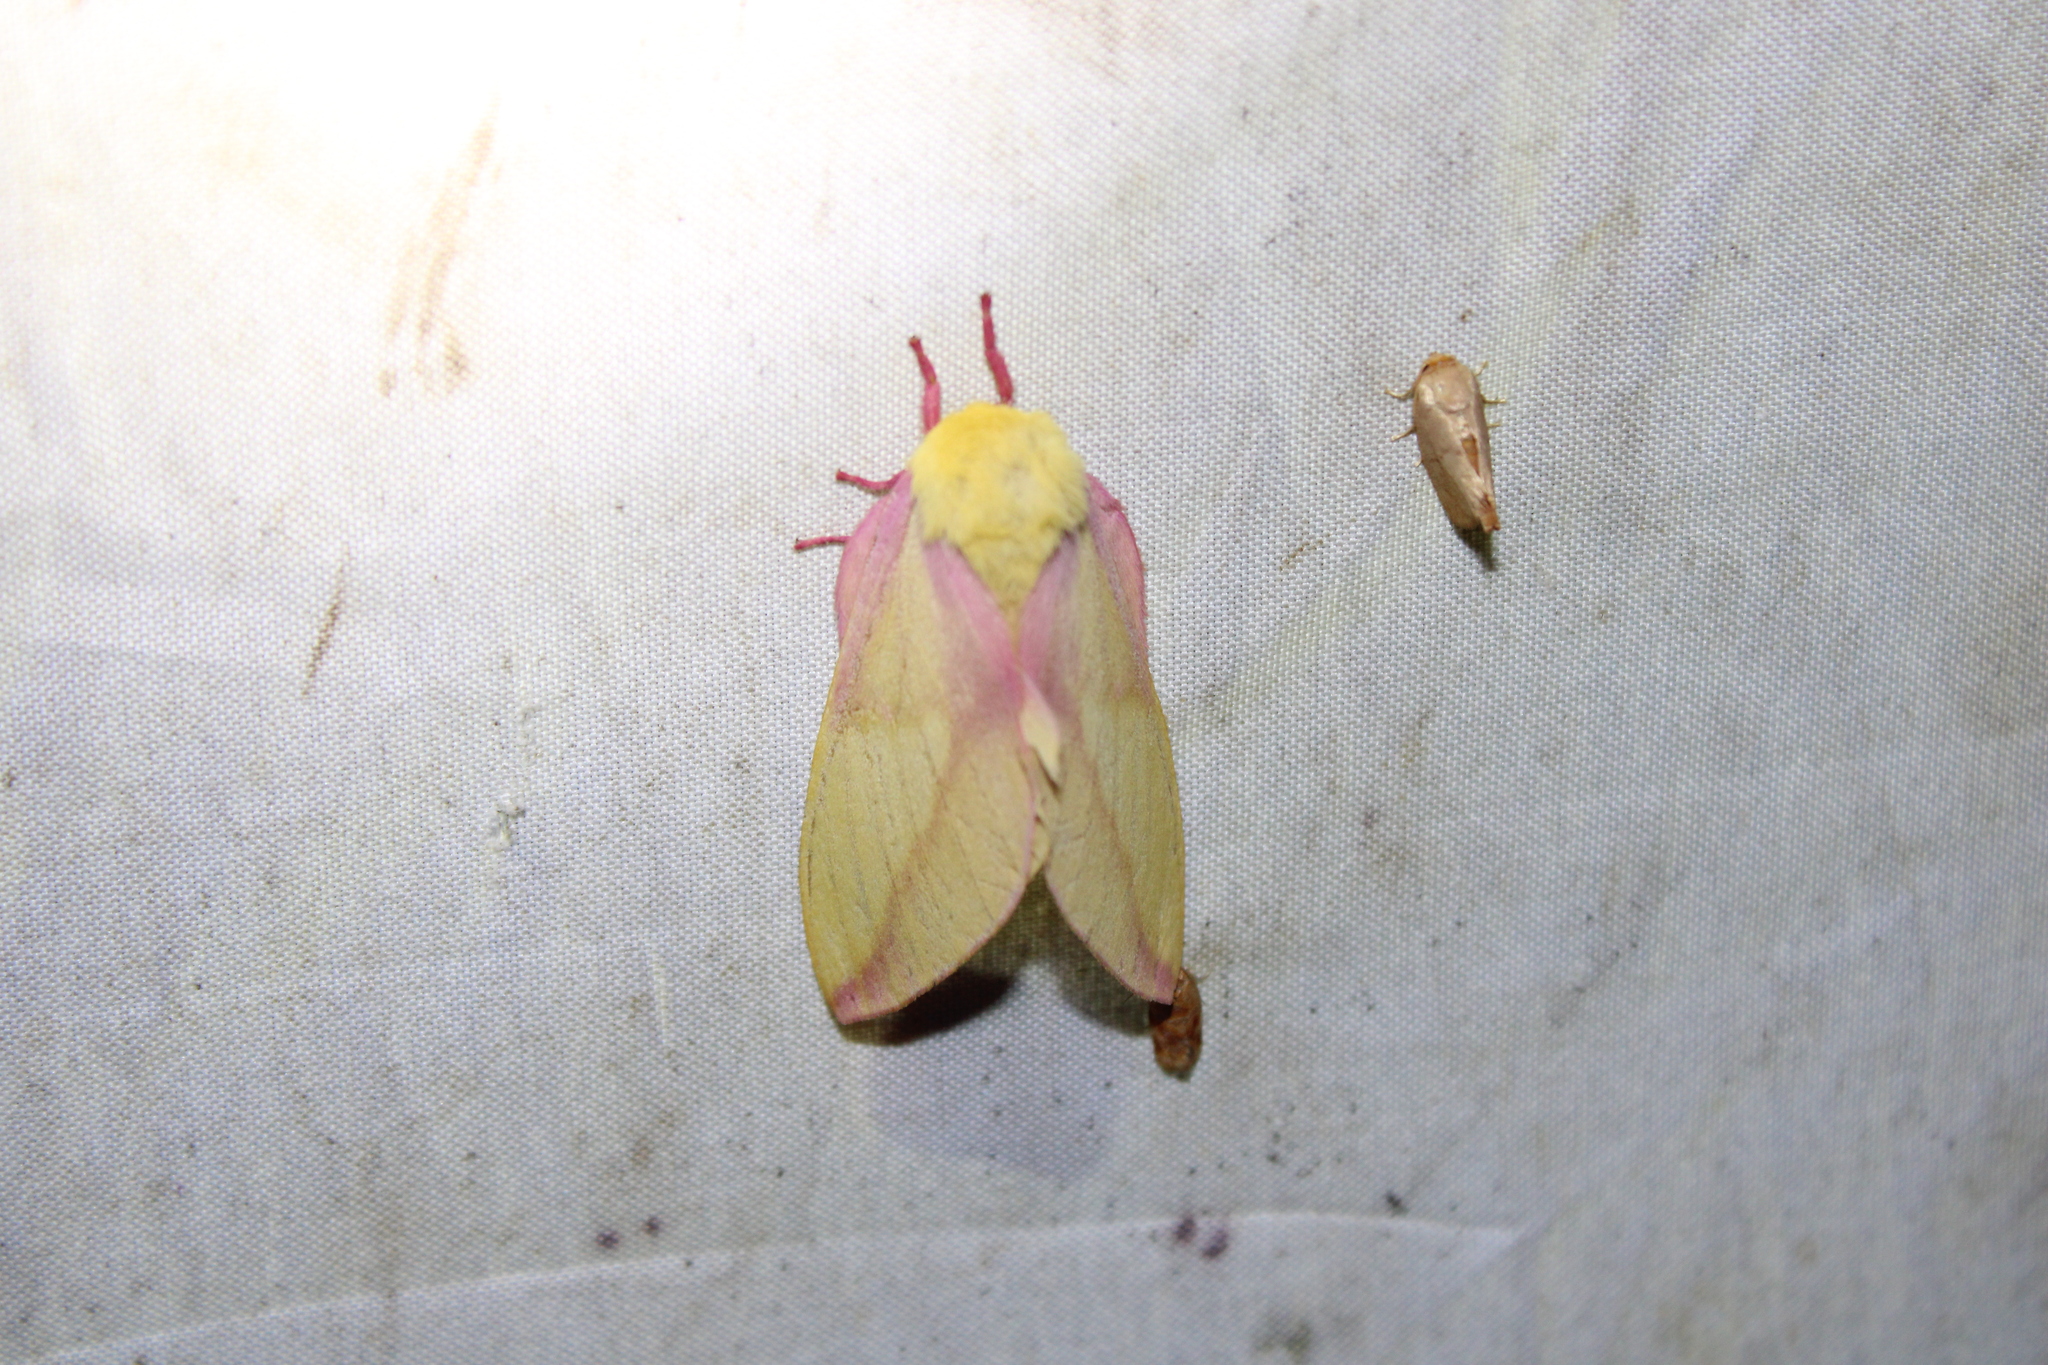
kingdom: Animalia
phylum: Arthropoda
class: Insecta
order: Lepidoptera
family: Saturniidae
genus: Dryocampa
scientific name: Dryocampa rubicunda
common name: Rosy maple moth
